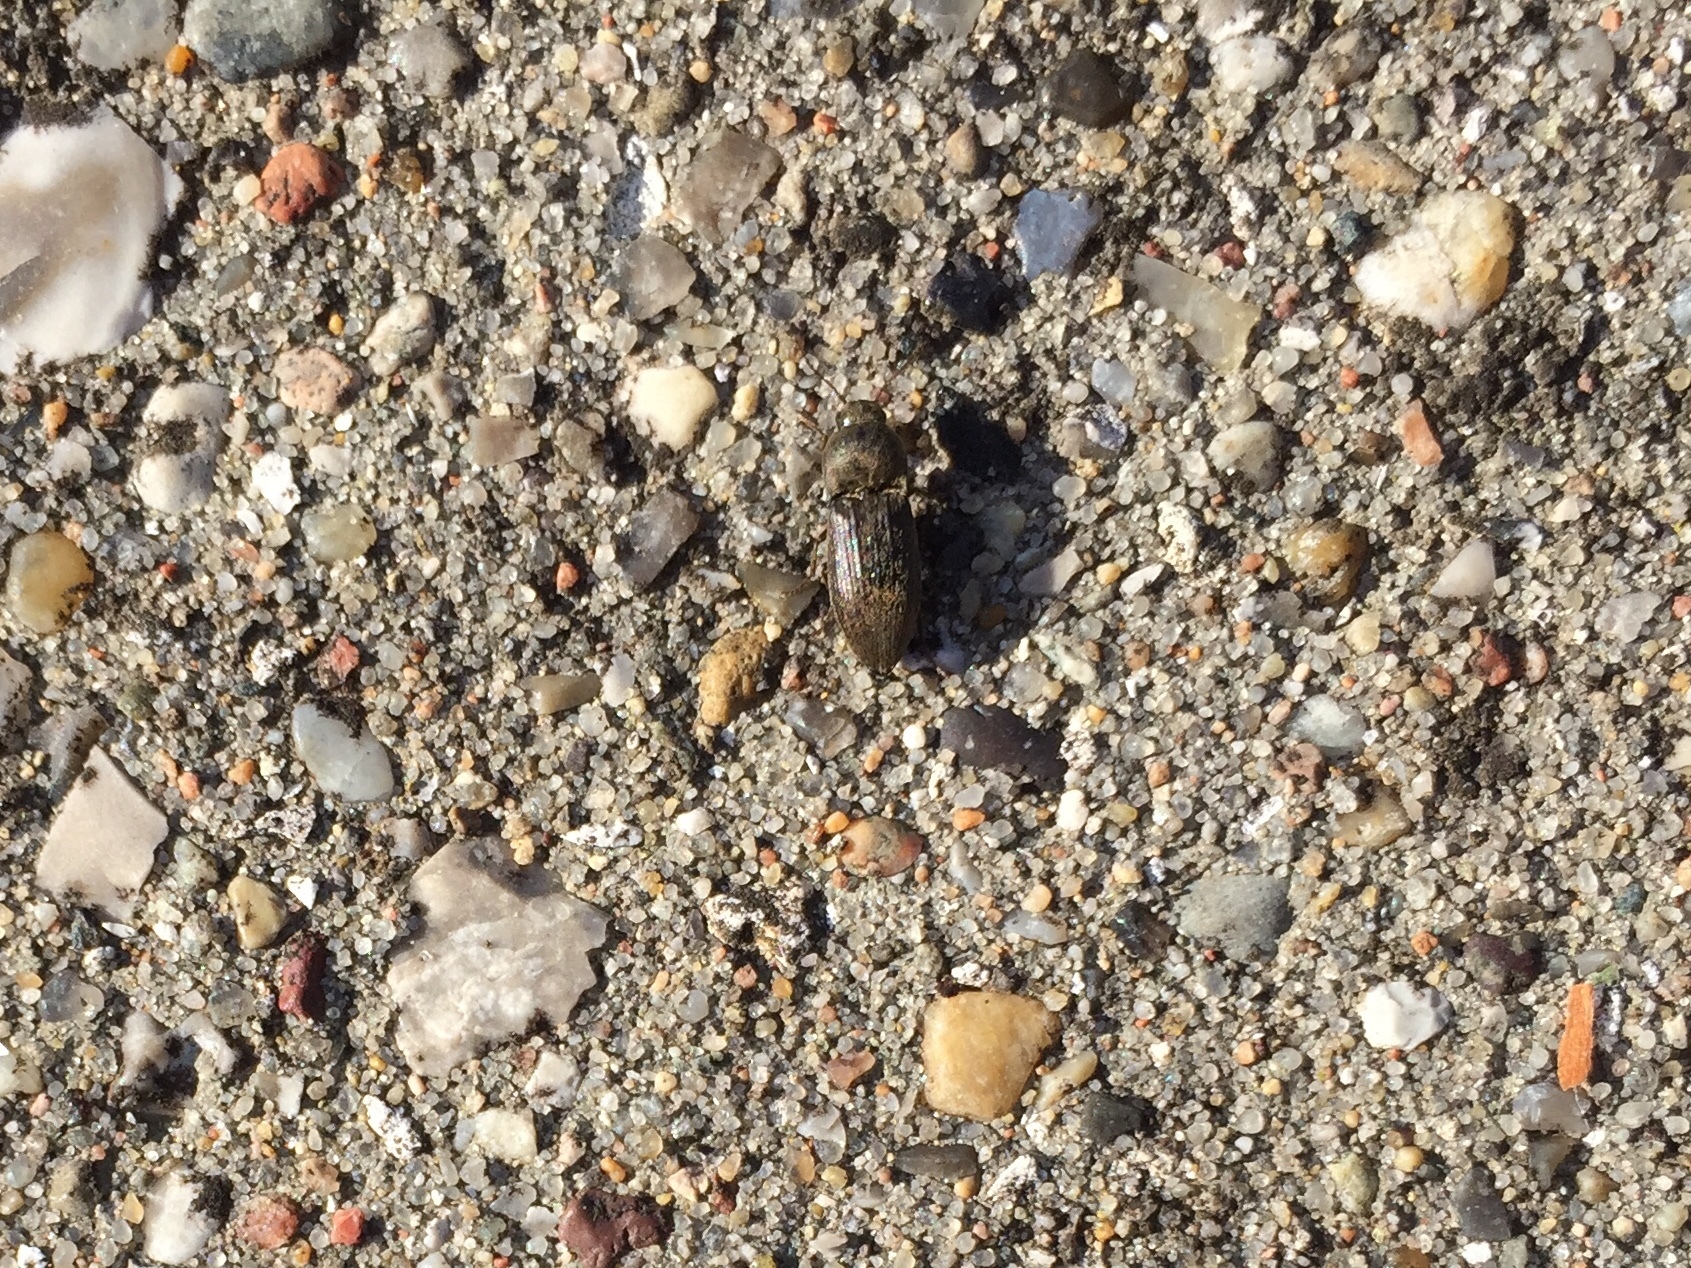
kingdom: Animalia
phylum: Arthropoda
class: Insecta
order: Coleoptera
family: Elateridae
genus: Agriotes
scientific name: Agriotes obscurus
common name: Dusky wireworm
